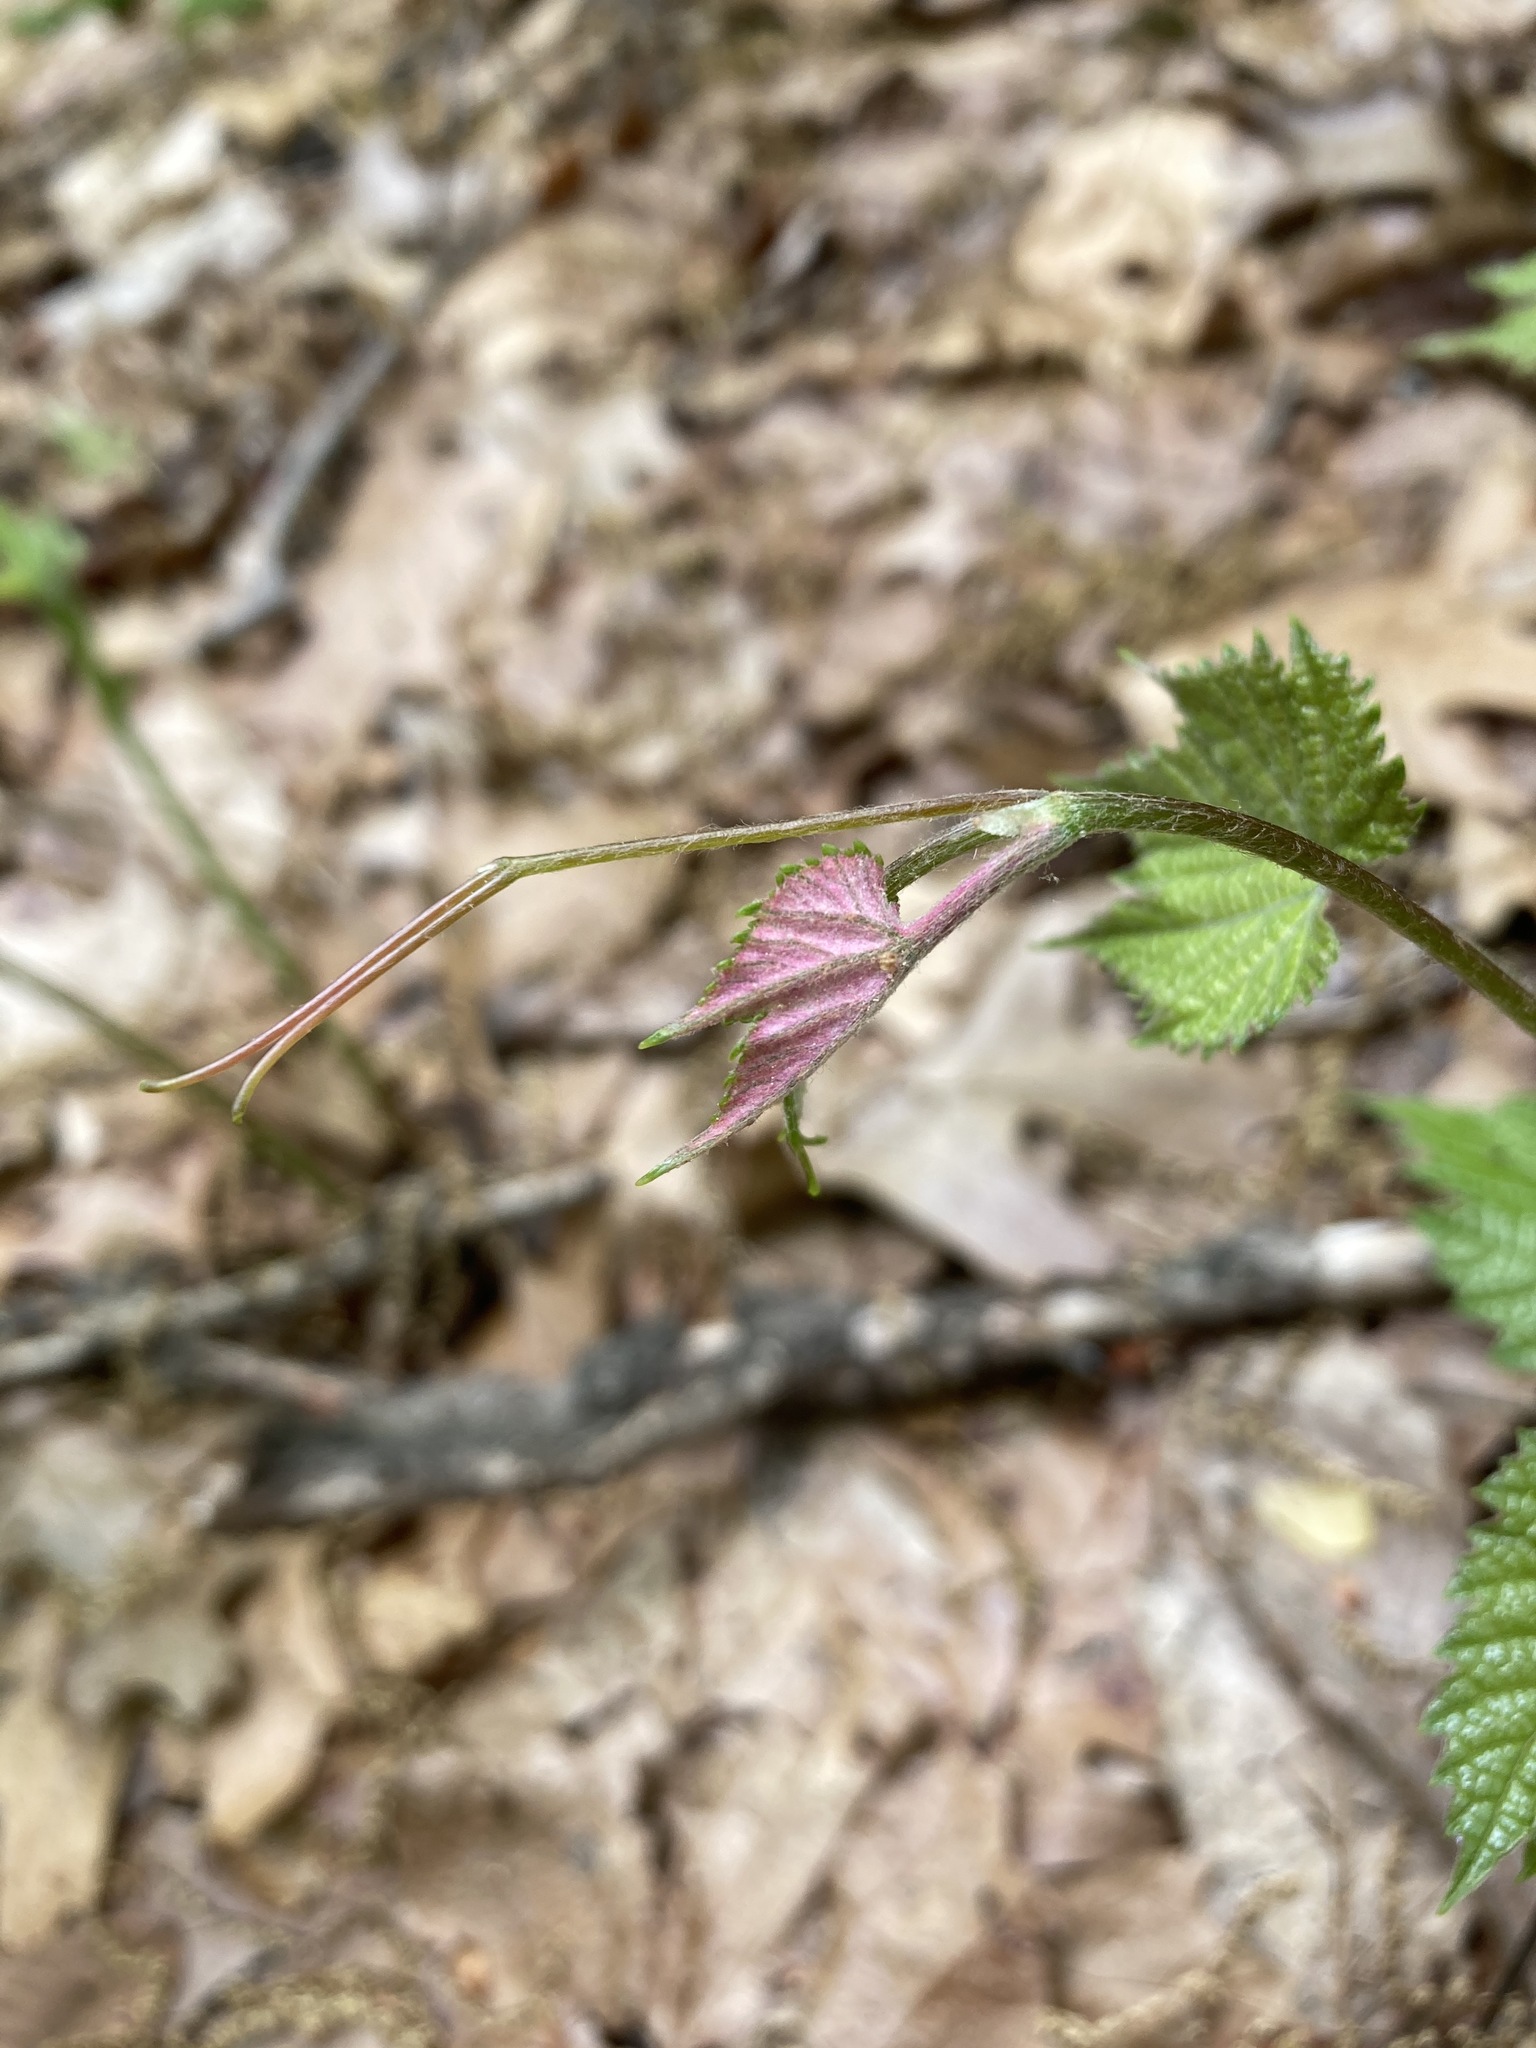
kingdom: Plantae
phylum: Tracheophyta
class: Magnoliopsida
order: Vitales
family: Vitaceae
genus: Vitis
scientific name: Vitis labrusca
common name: Concord grape
